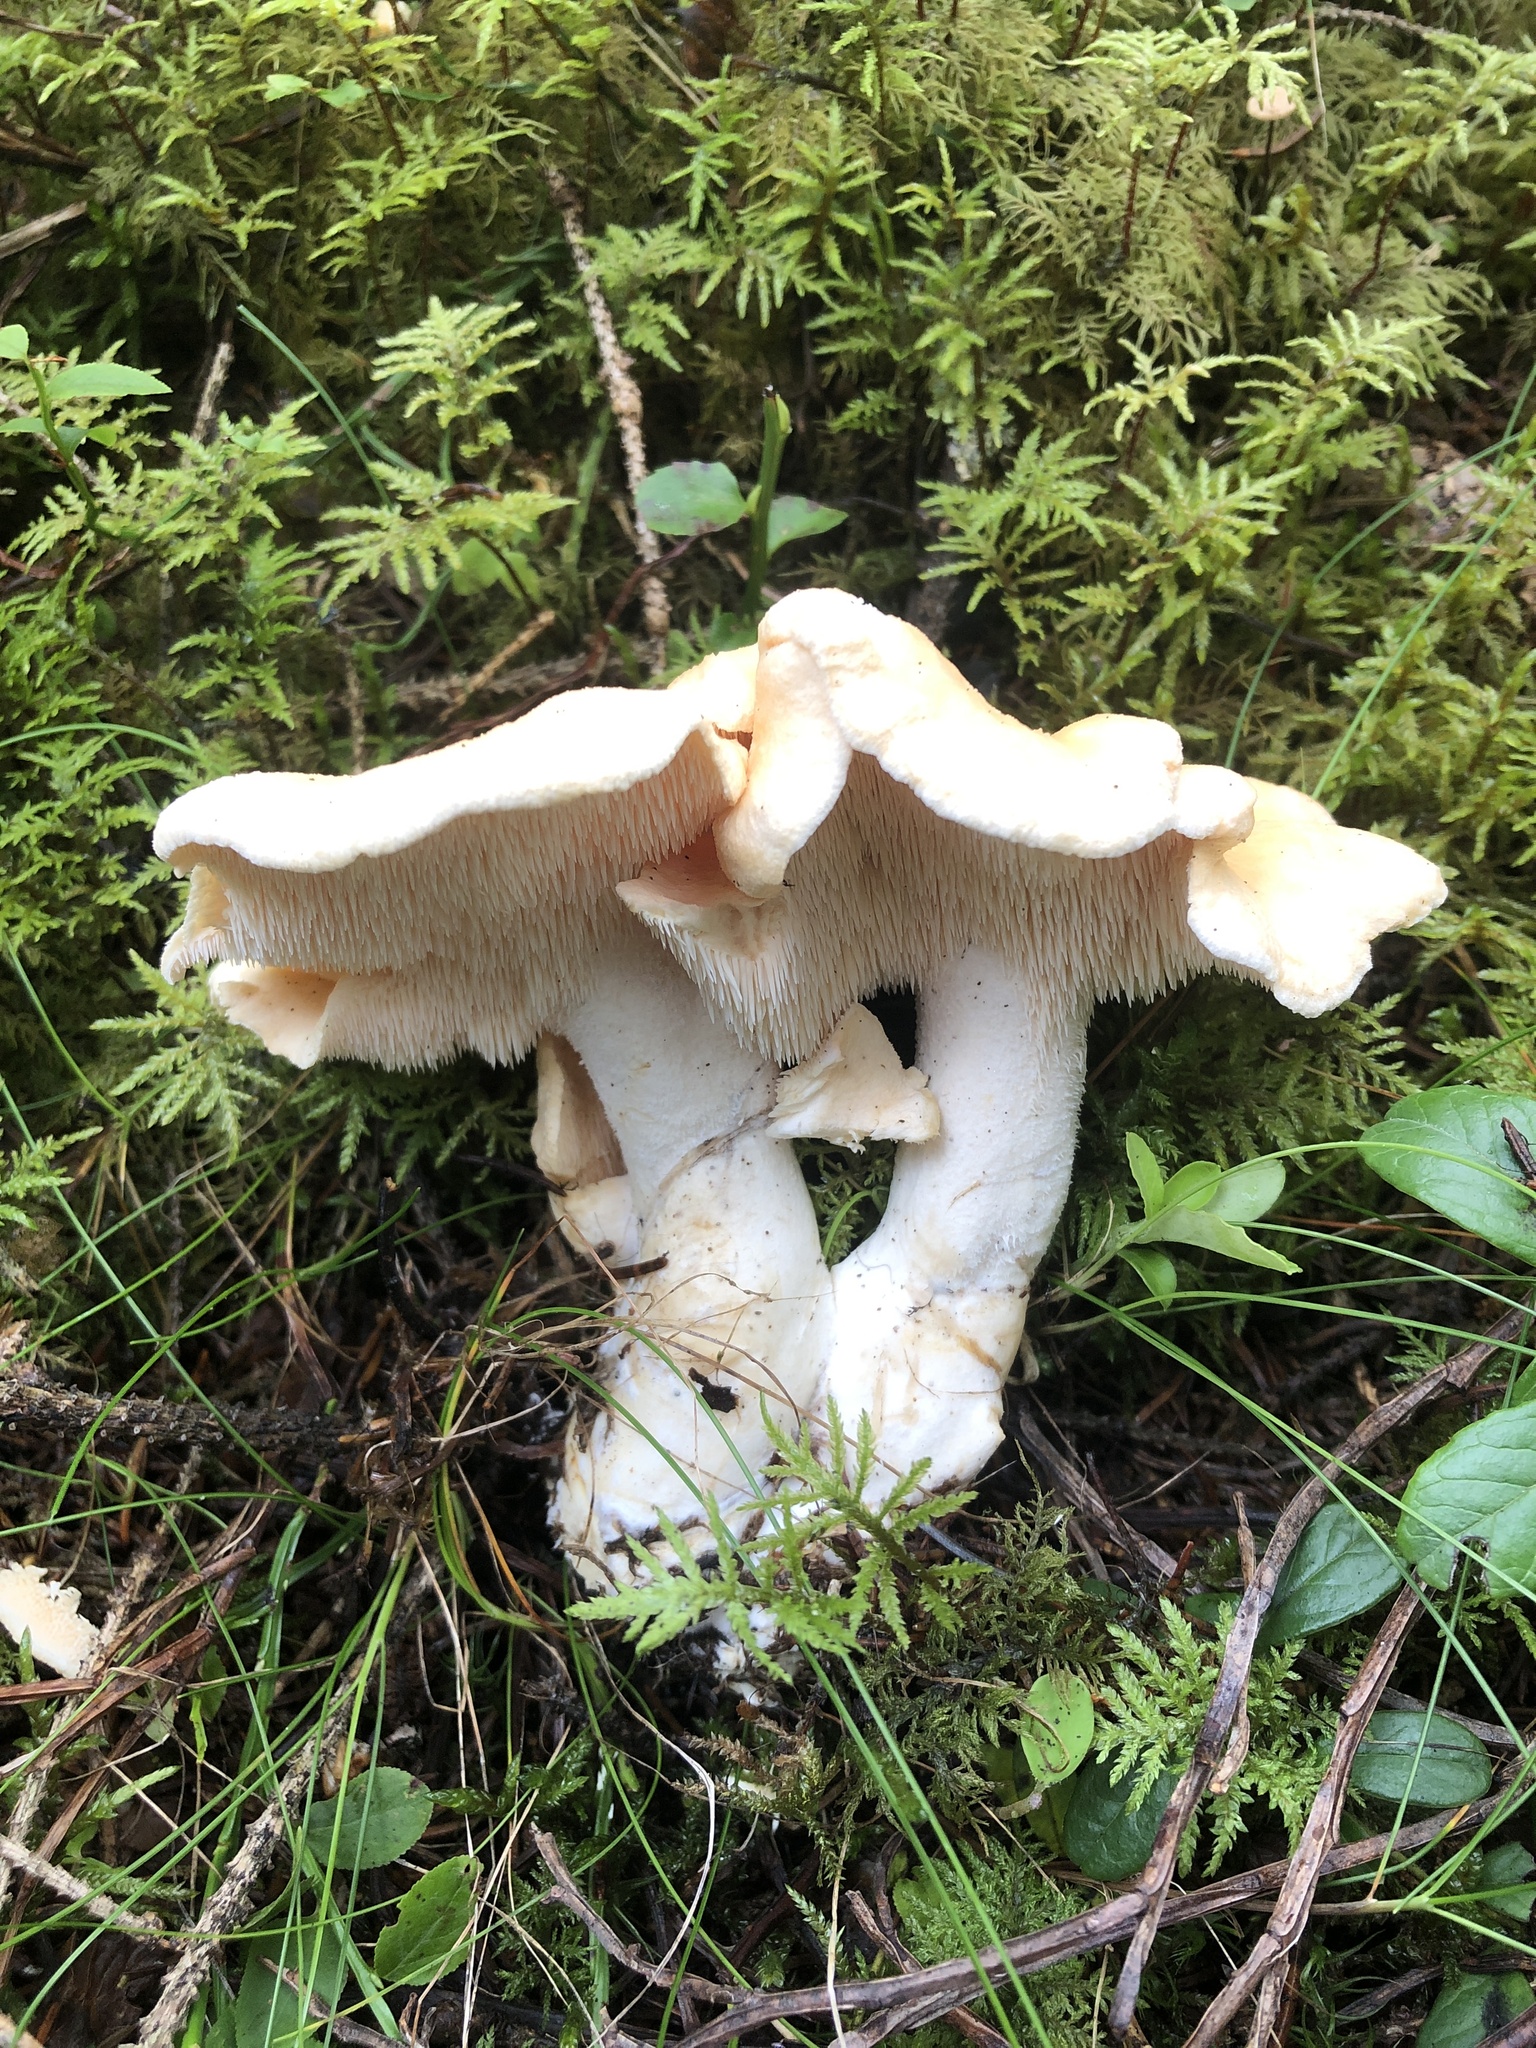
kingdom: Fungi
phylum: Basidiomycota
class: Agaricomycetes
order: Cantharellales
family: Hydnaceae
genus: Hydnum
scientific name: Hydnum repandum
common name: Wood hedgehog
